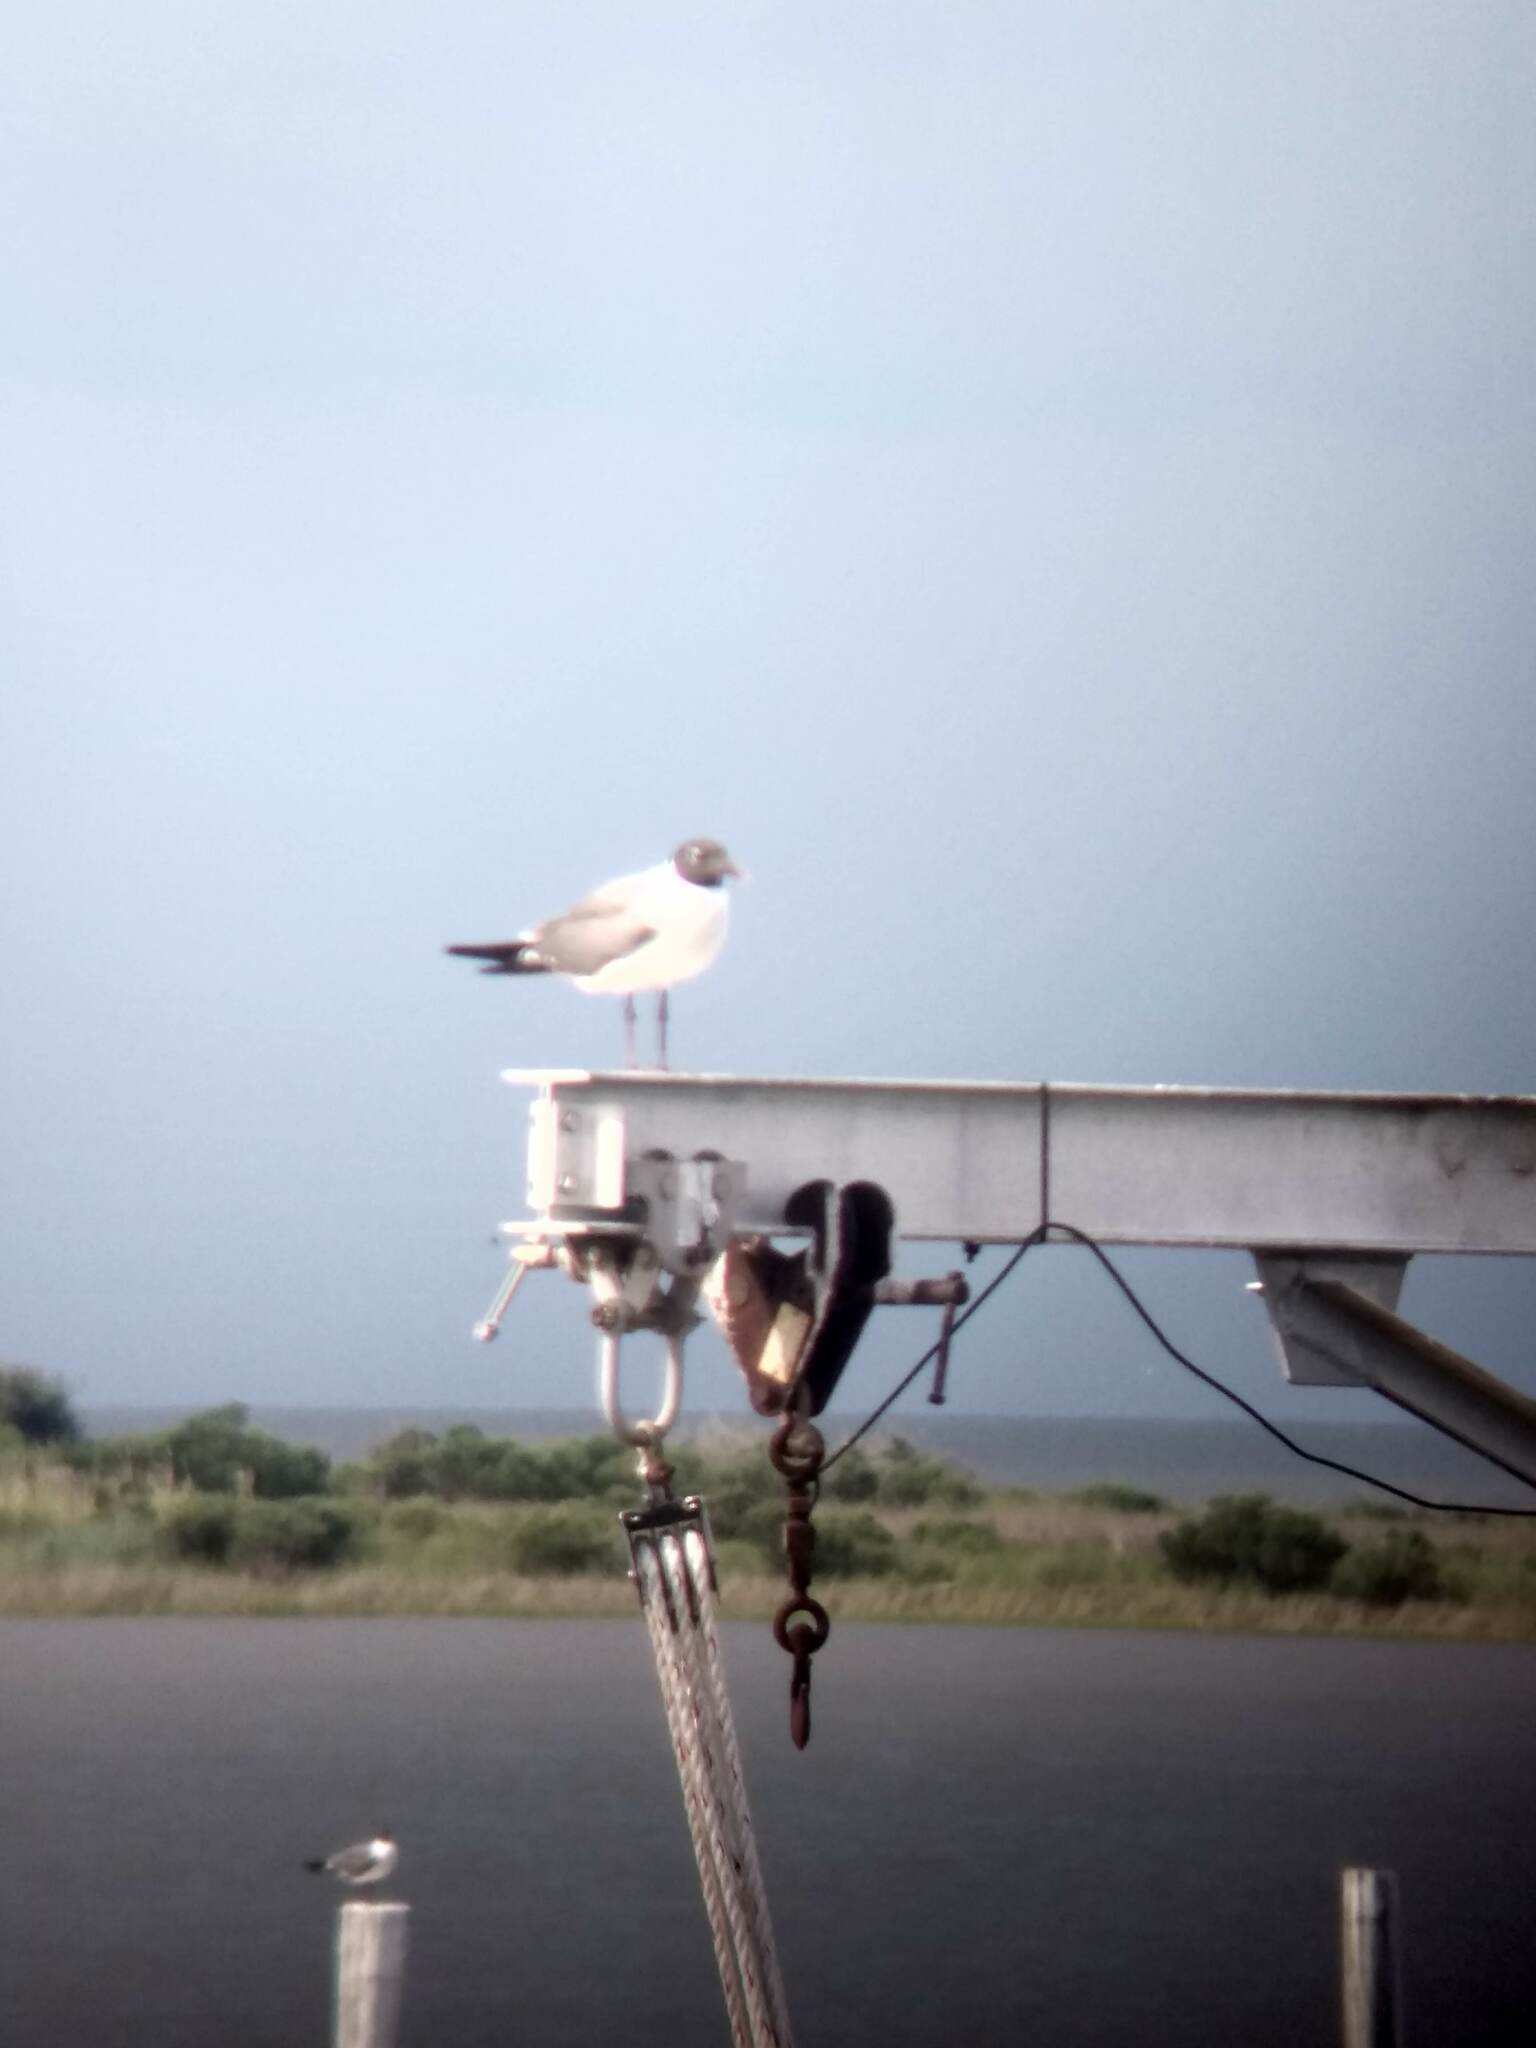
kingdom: Animalia
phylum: Chordata
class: Aves
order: Charadriiformes
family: Laridae
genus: Leucophaeus
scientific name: Leucophaeus atricilla
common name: Laughing gull
